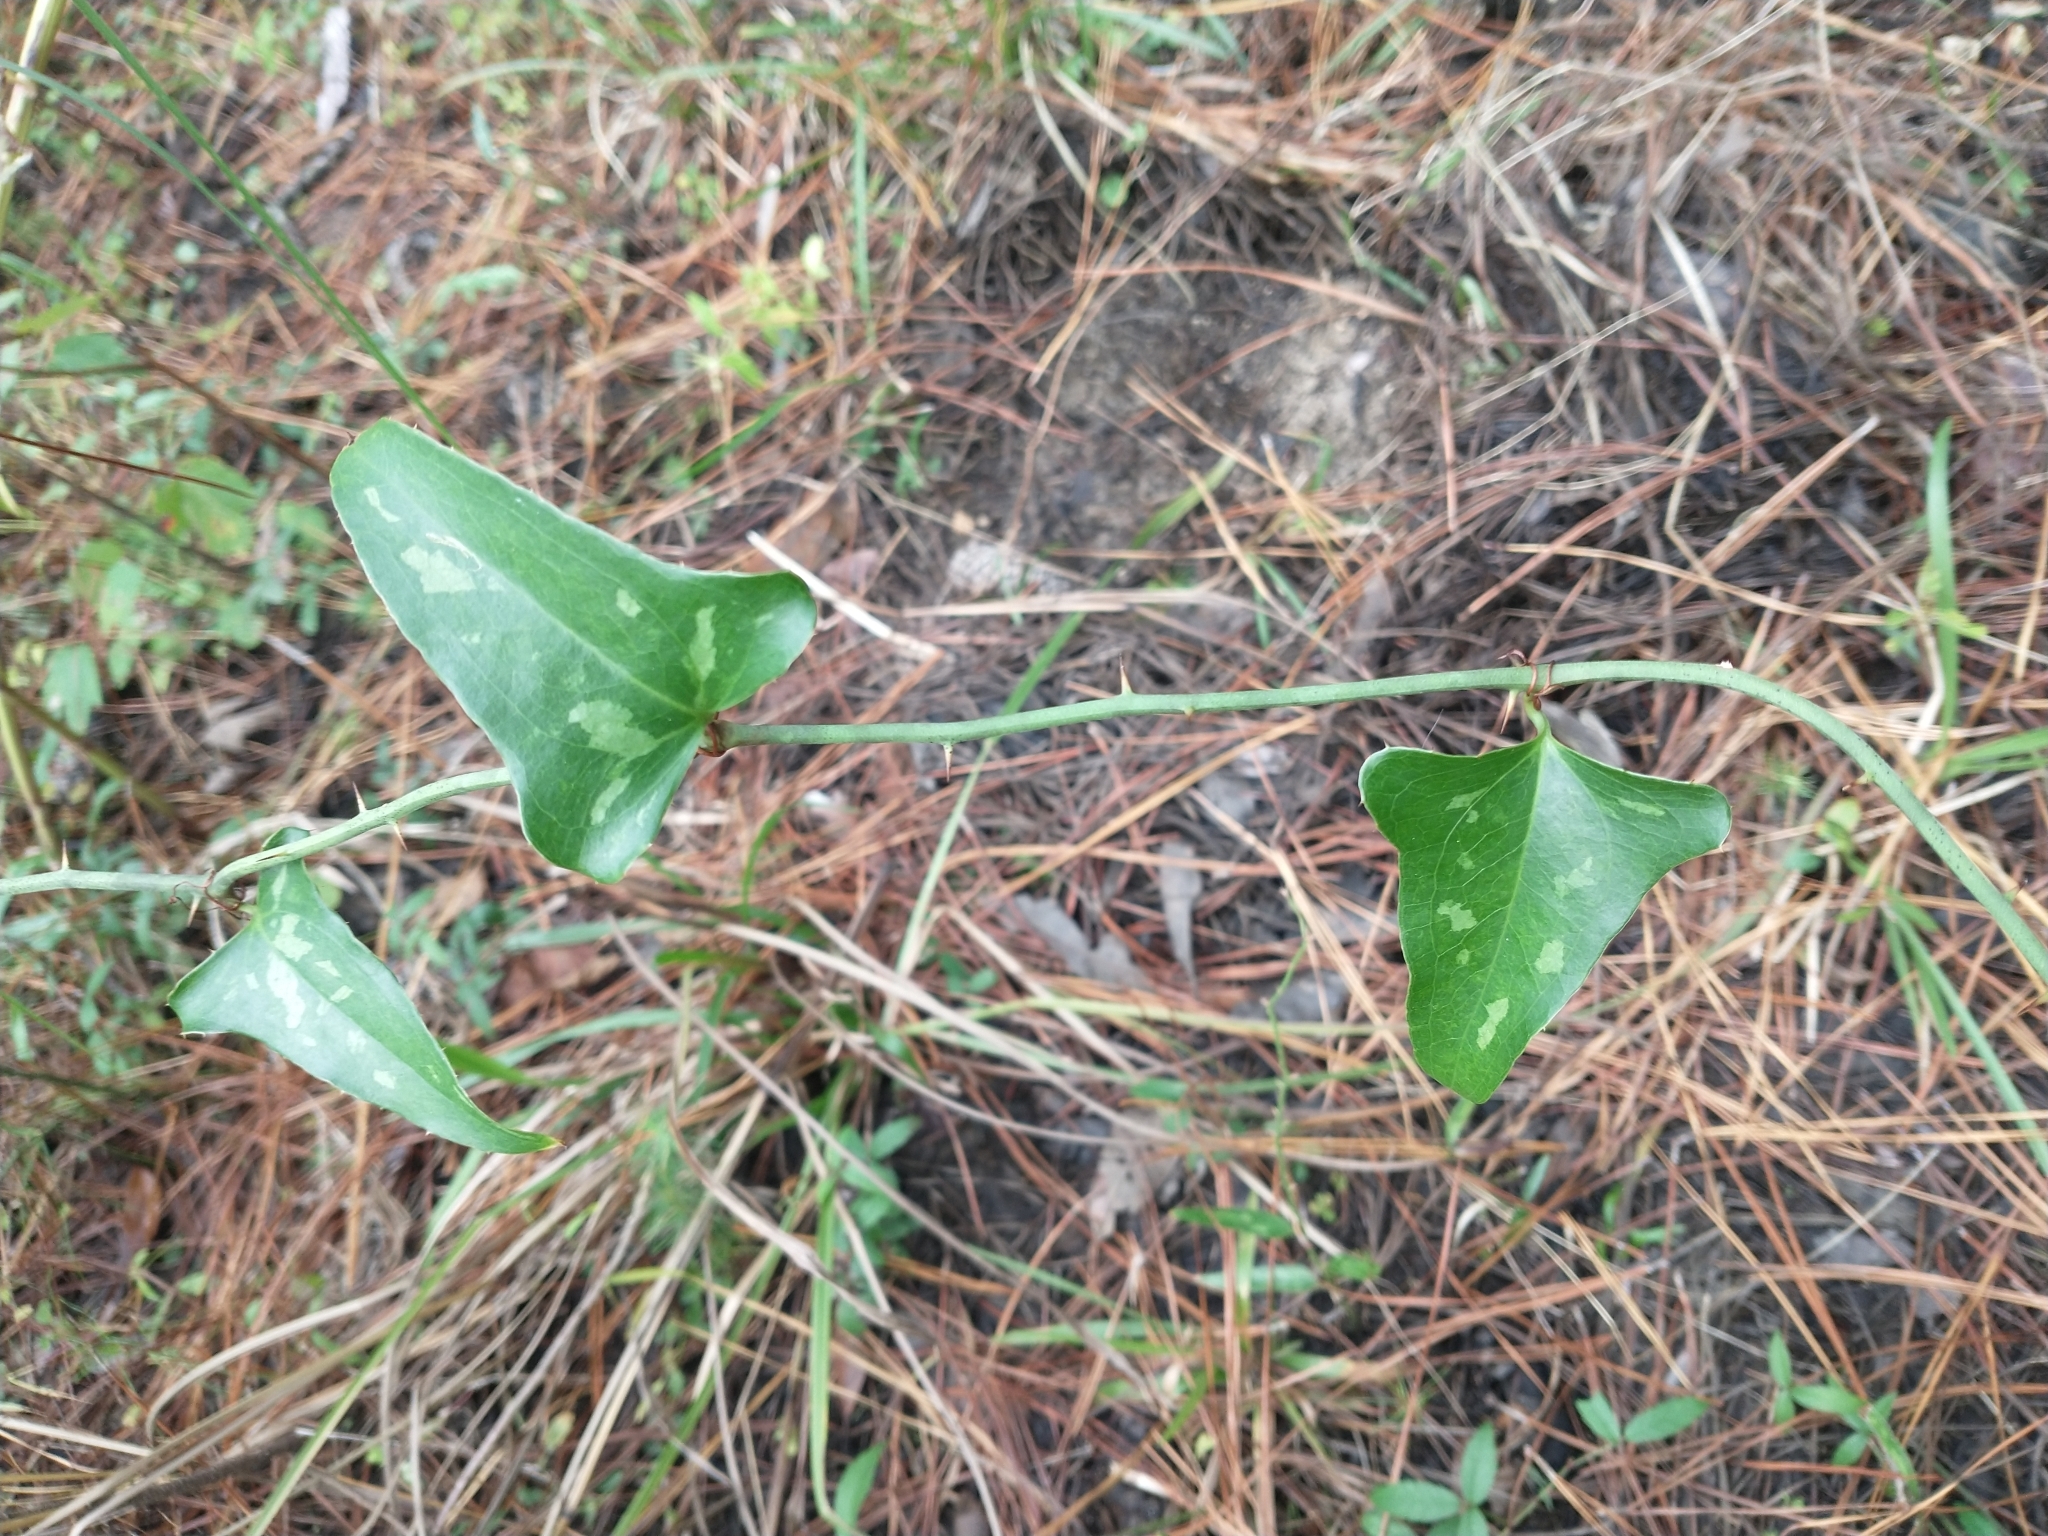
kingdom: Plantae
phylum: Tracheophyta
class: Liliopsida
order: Liliales
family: Smilacaceae
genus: Smilax
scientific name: Smilax bona-nox
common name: Catbrier
